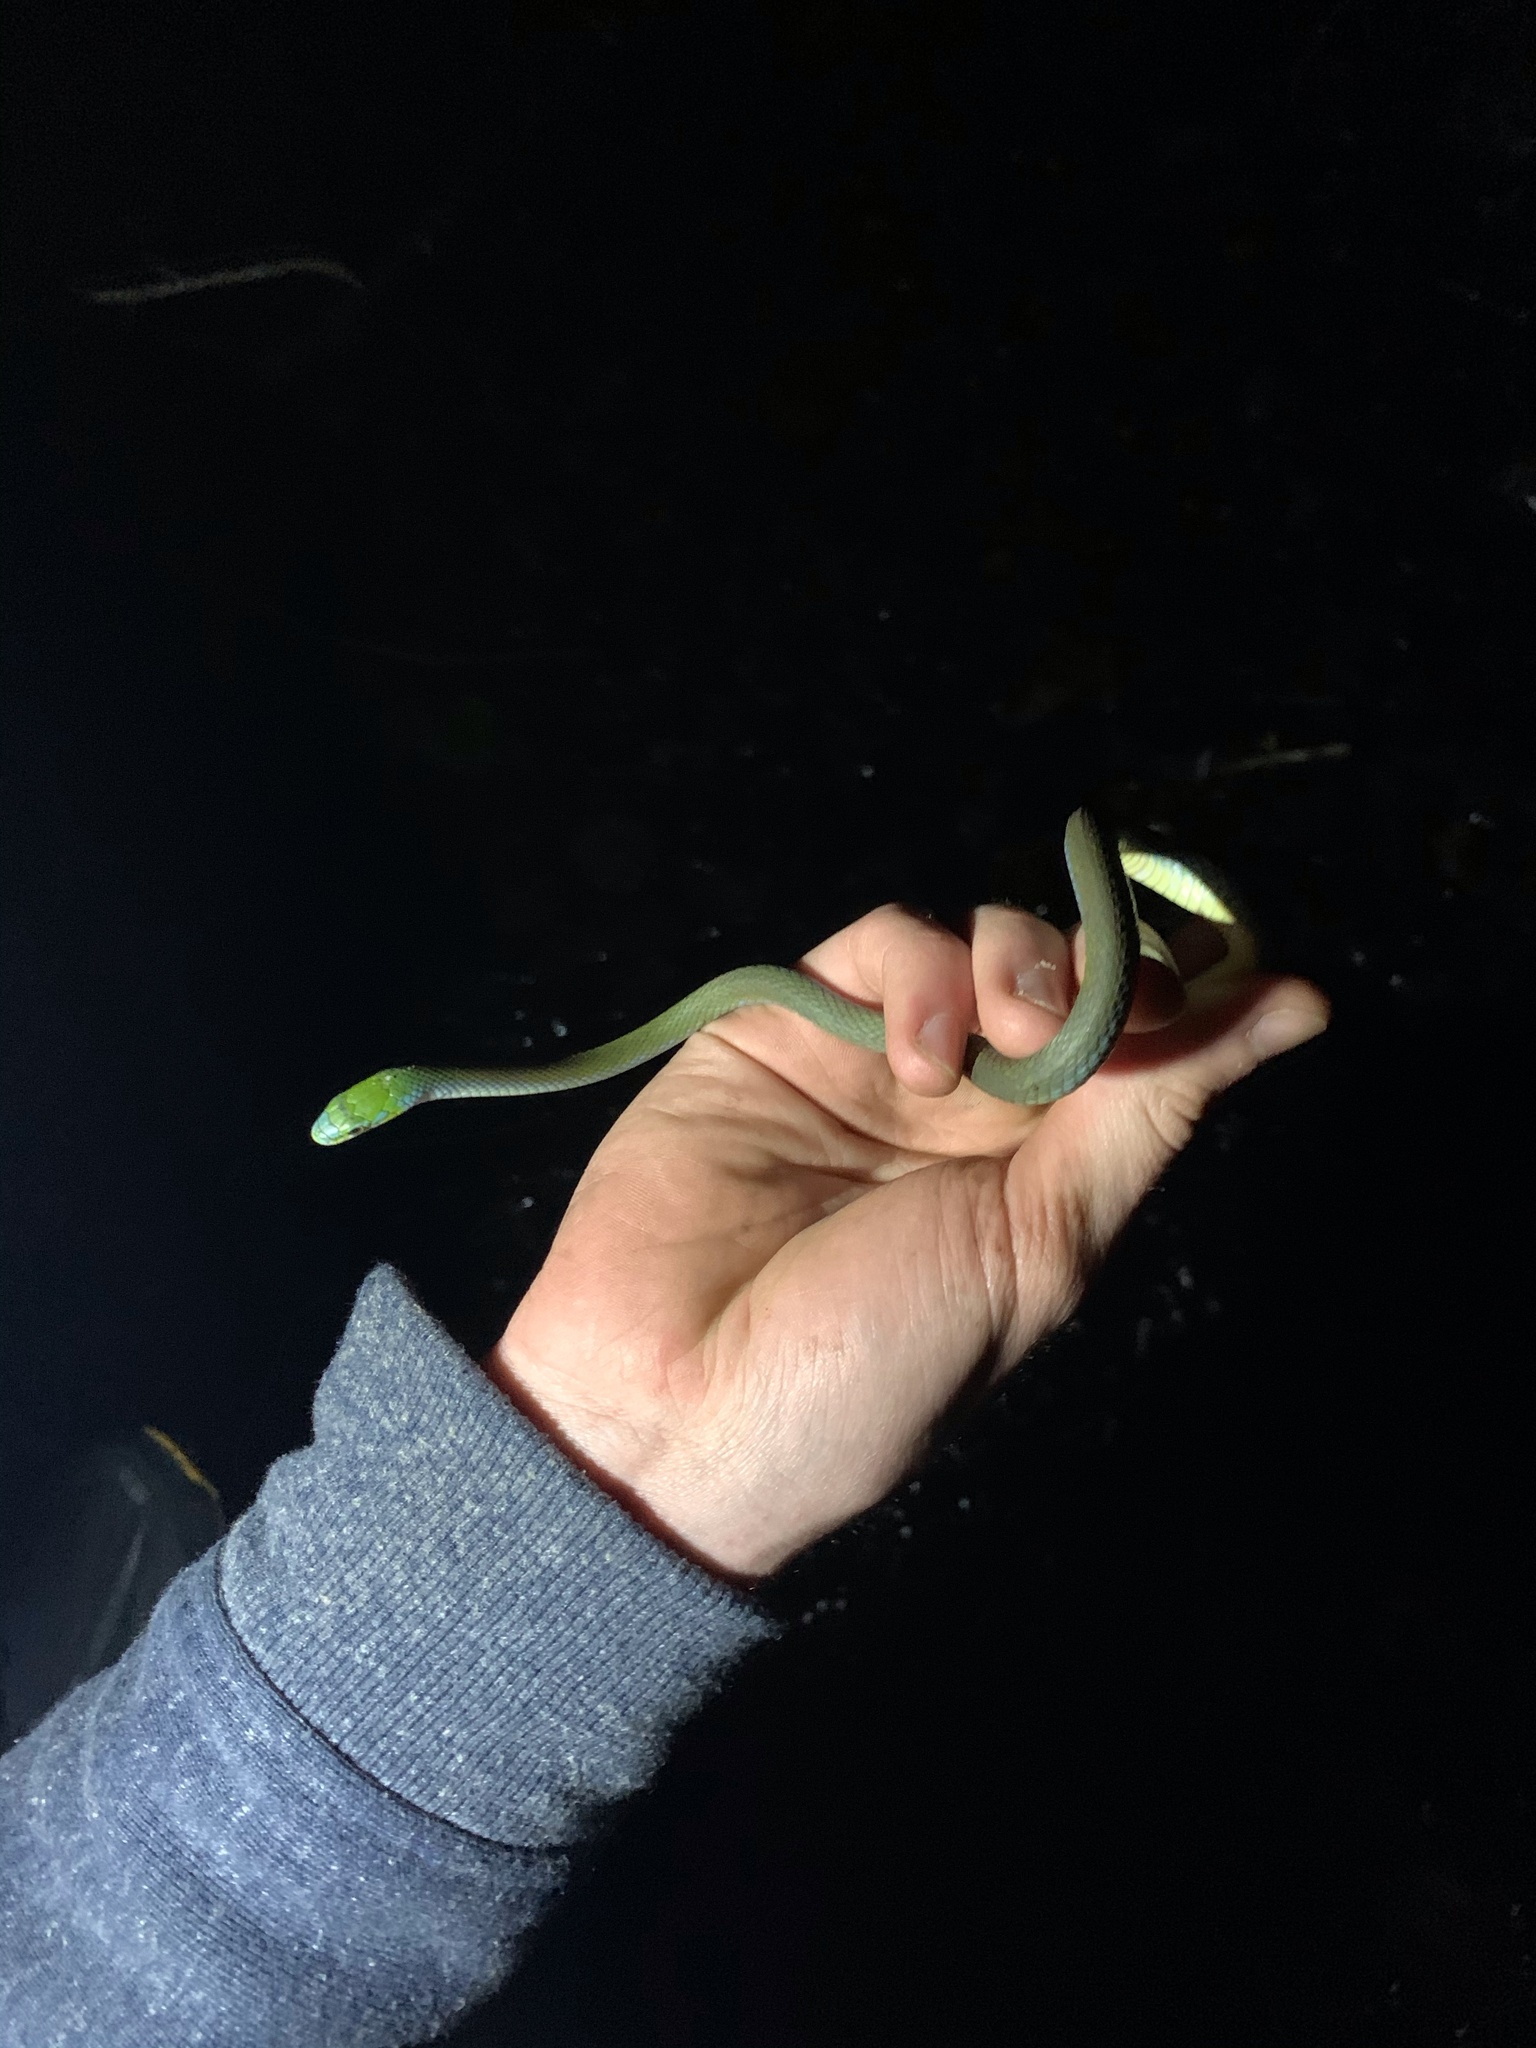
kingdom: Animalia
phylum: Chordata
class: Squamata
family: Colubridae
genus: Opheodrys
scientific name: Opheodrys aestivus
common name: Rough greensnake
